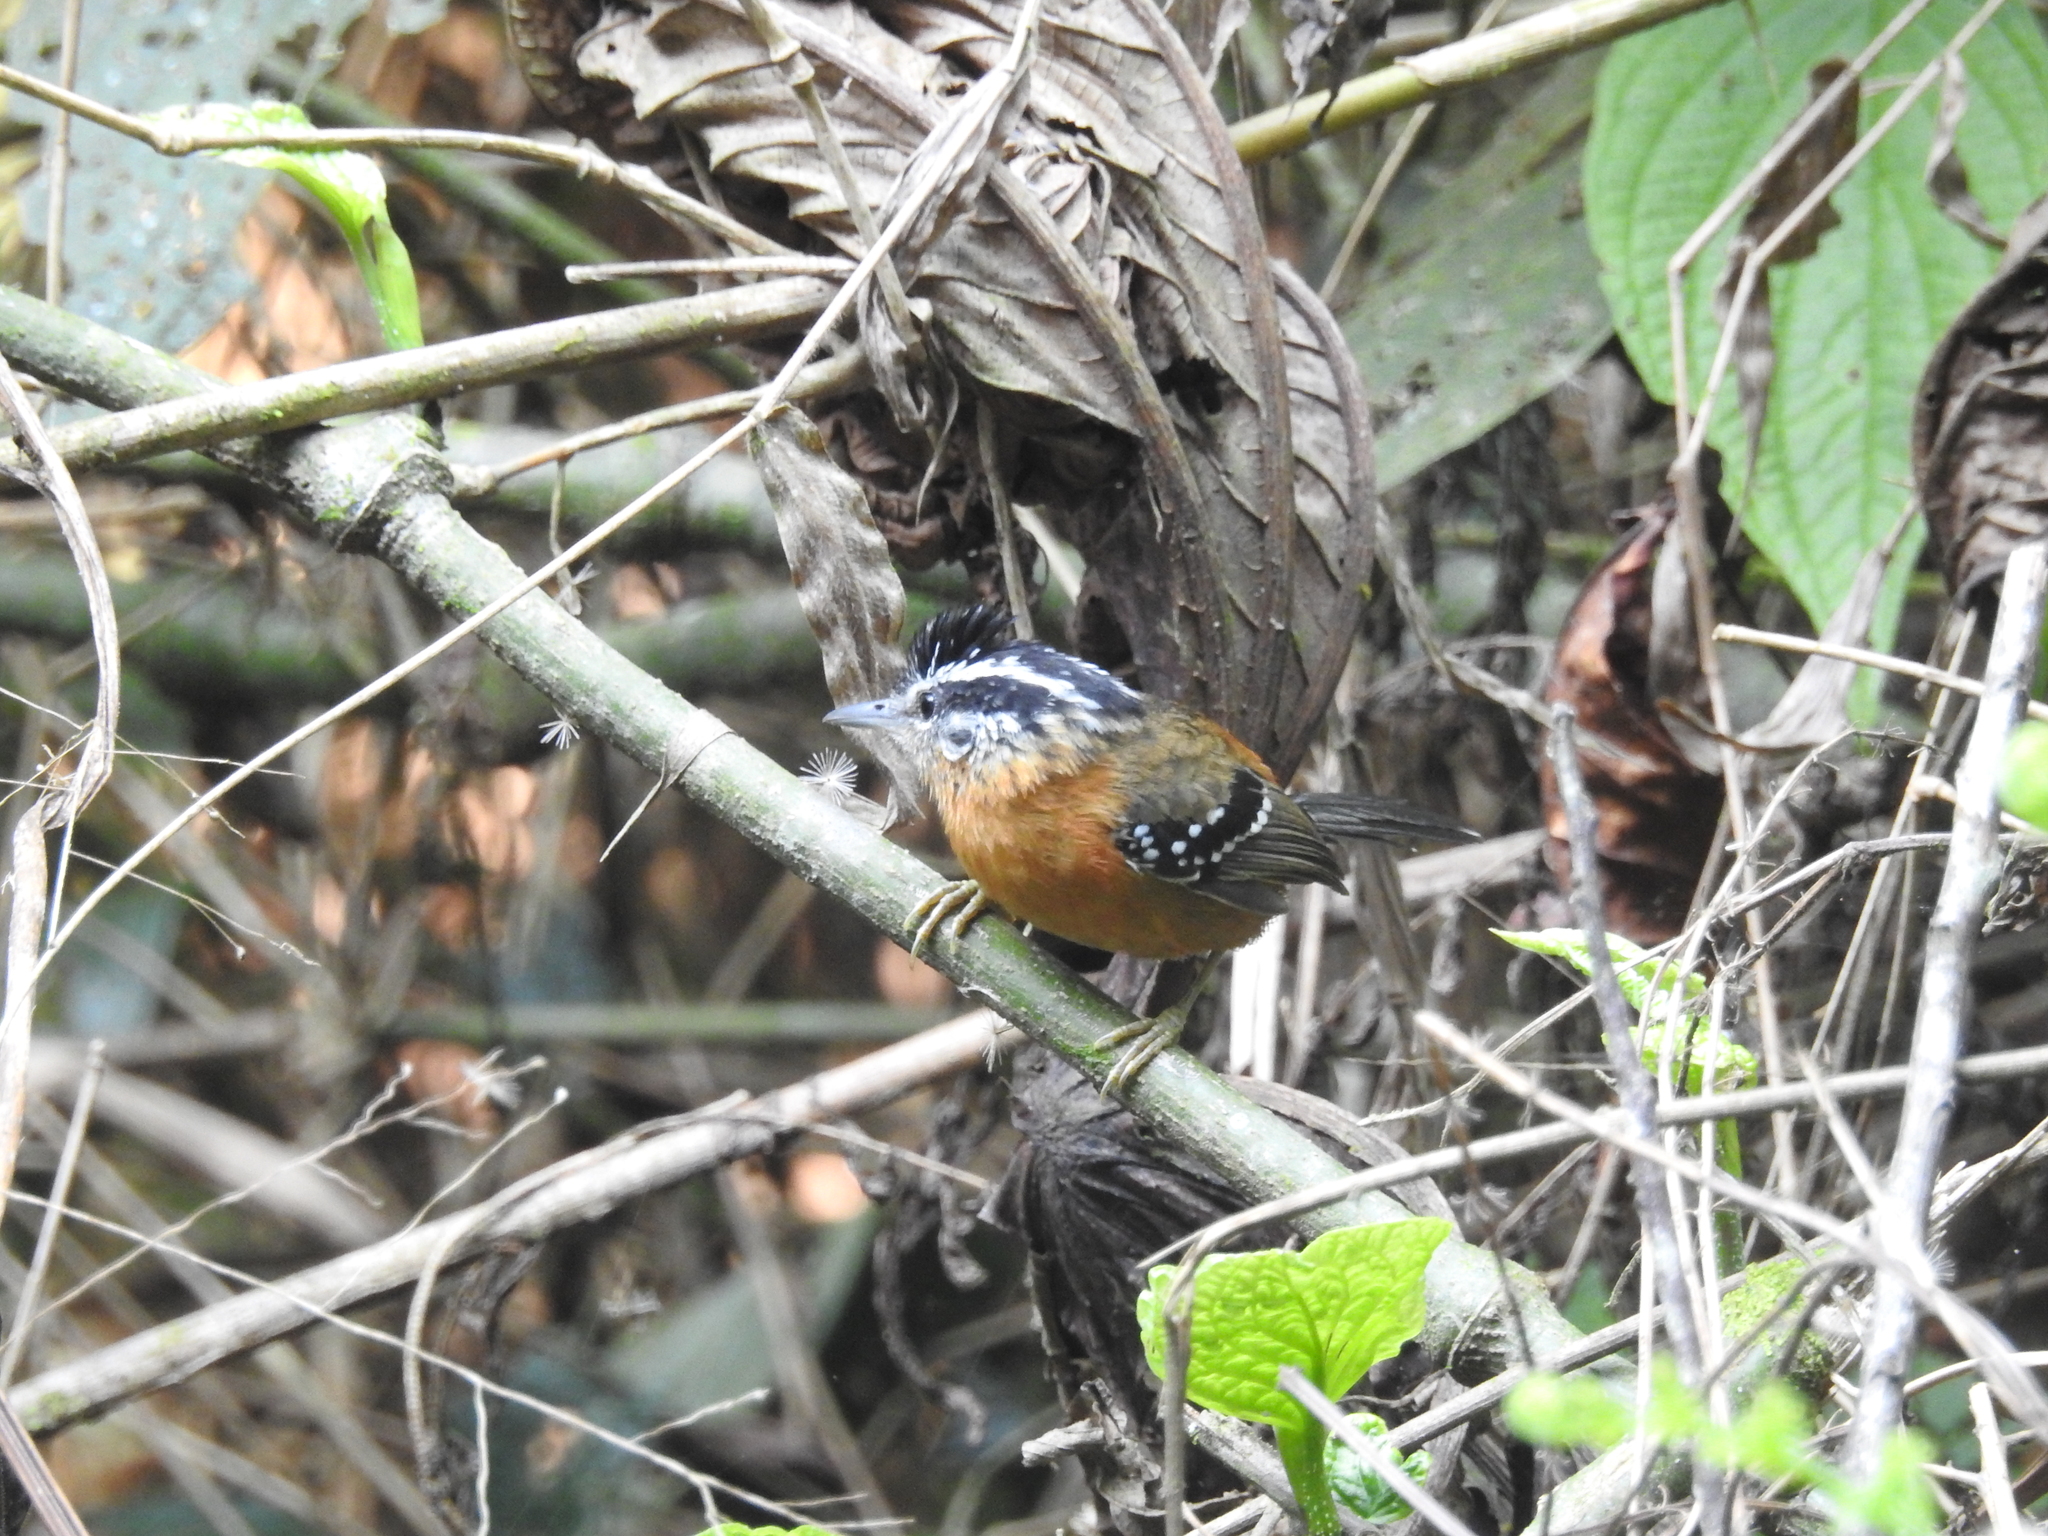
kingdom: Animalia
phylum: Chordata
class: Aves
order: Passeriformes
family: Thamnophilidae
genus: Drymophila
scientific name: Drymophila ferruginea
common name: Ferruginous antbird
